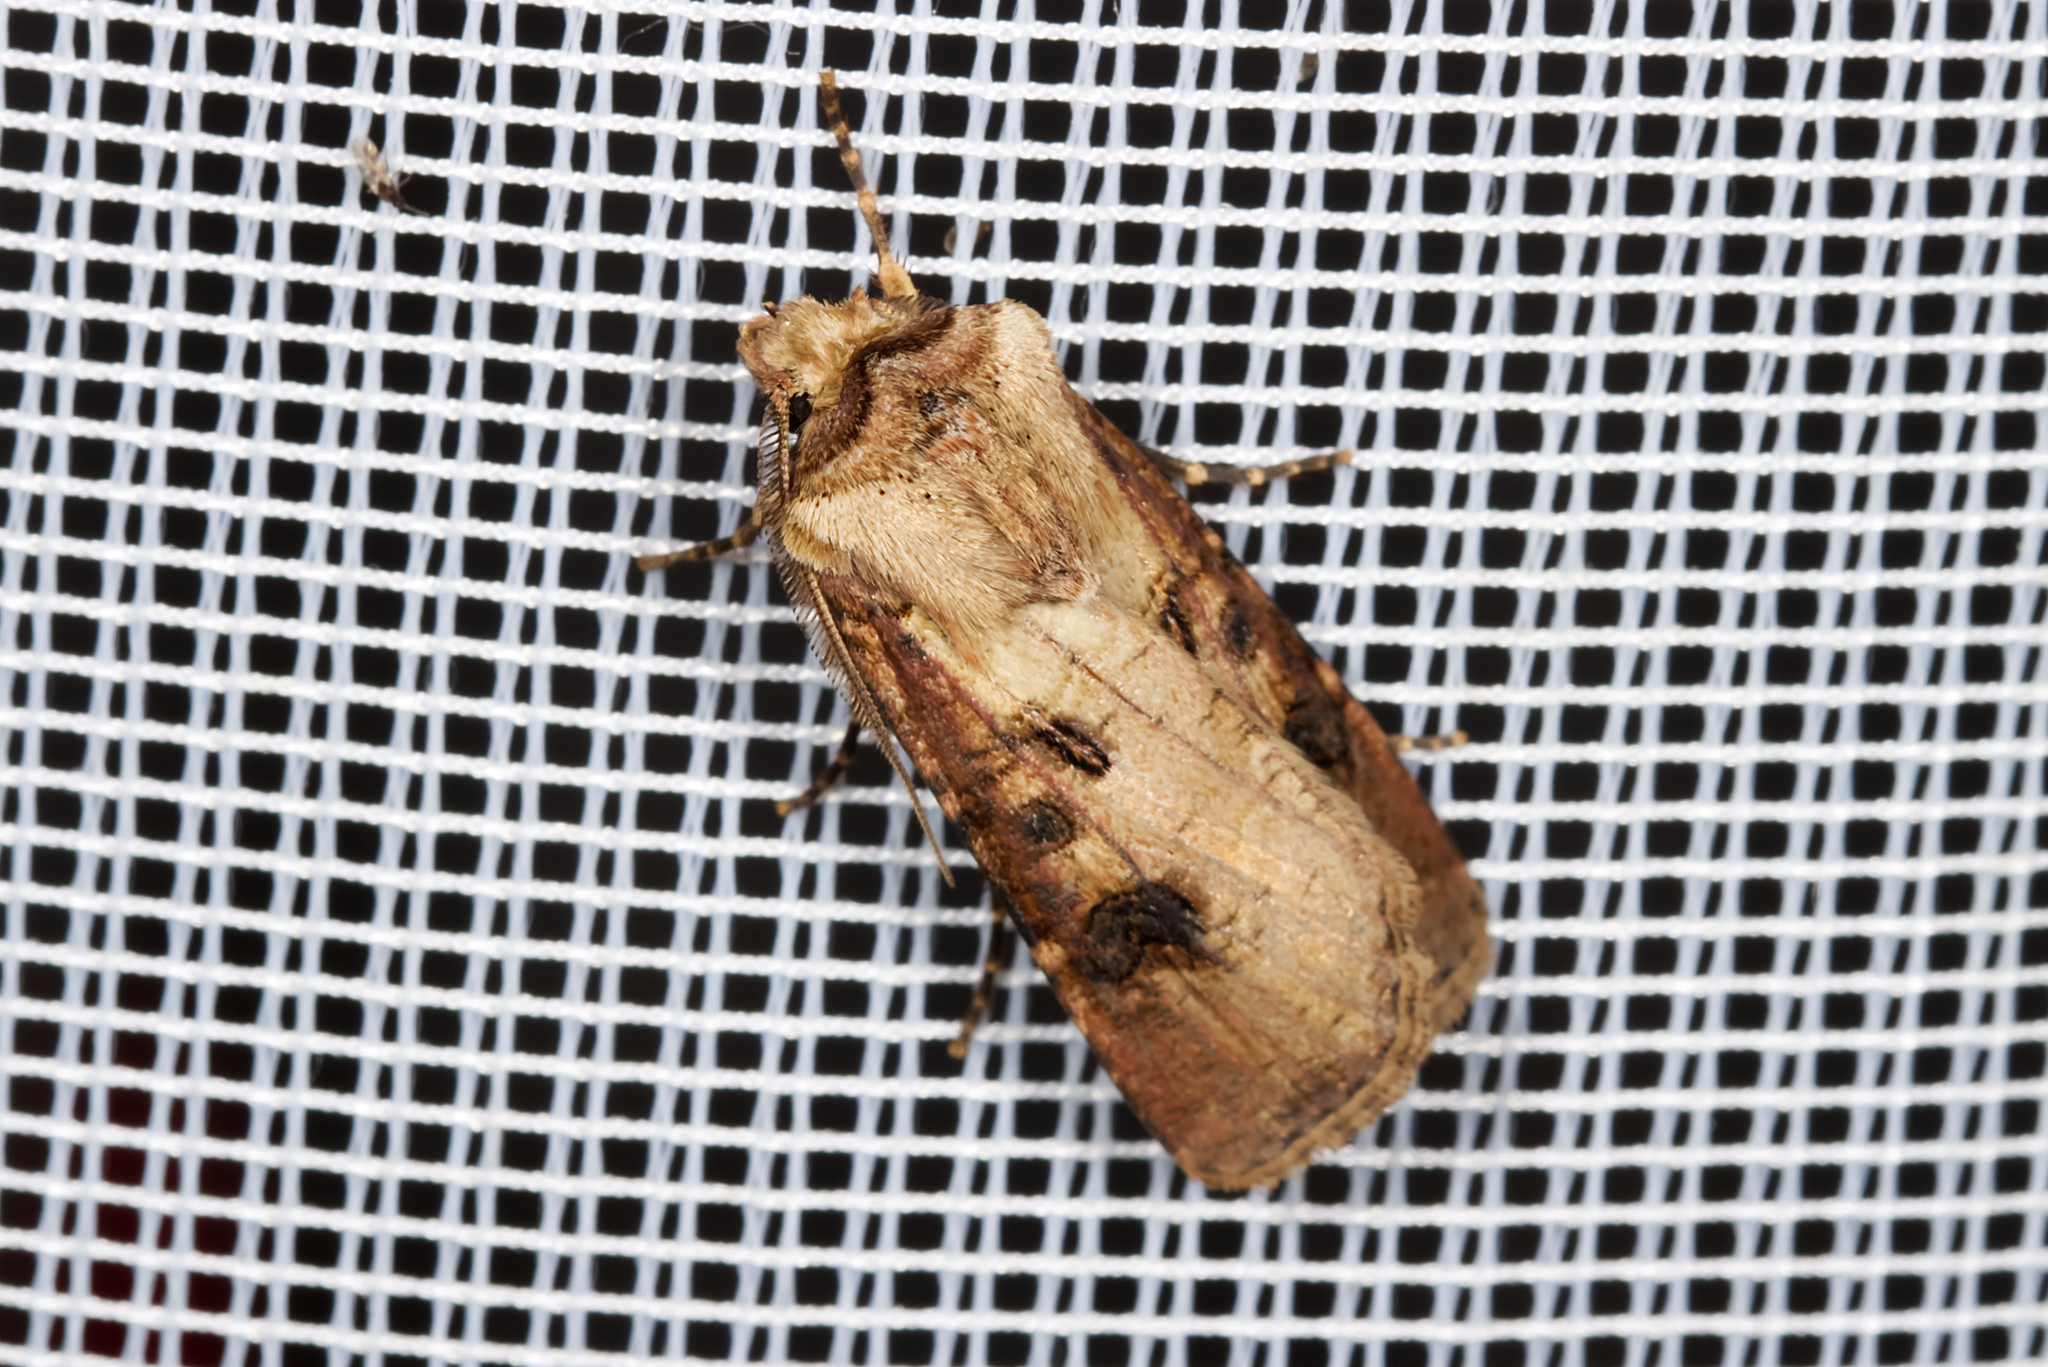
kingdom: Animalia
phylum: Arthropoda
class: Insecta
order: Lepidoptera
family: Noctuidae
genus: Agrotis
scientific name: Agrotis clavis
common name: Heart and club
